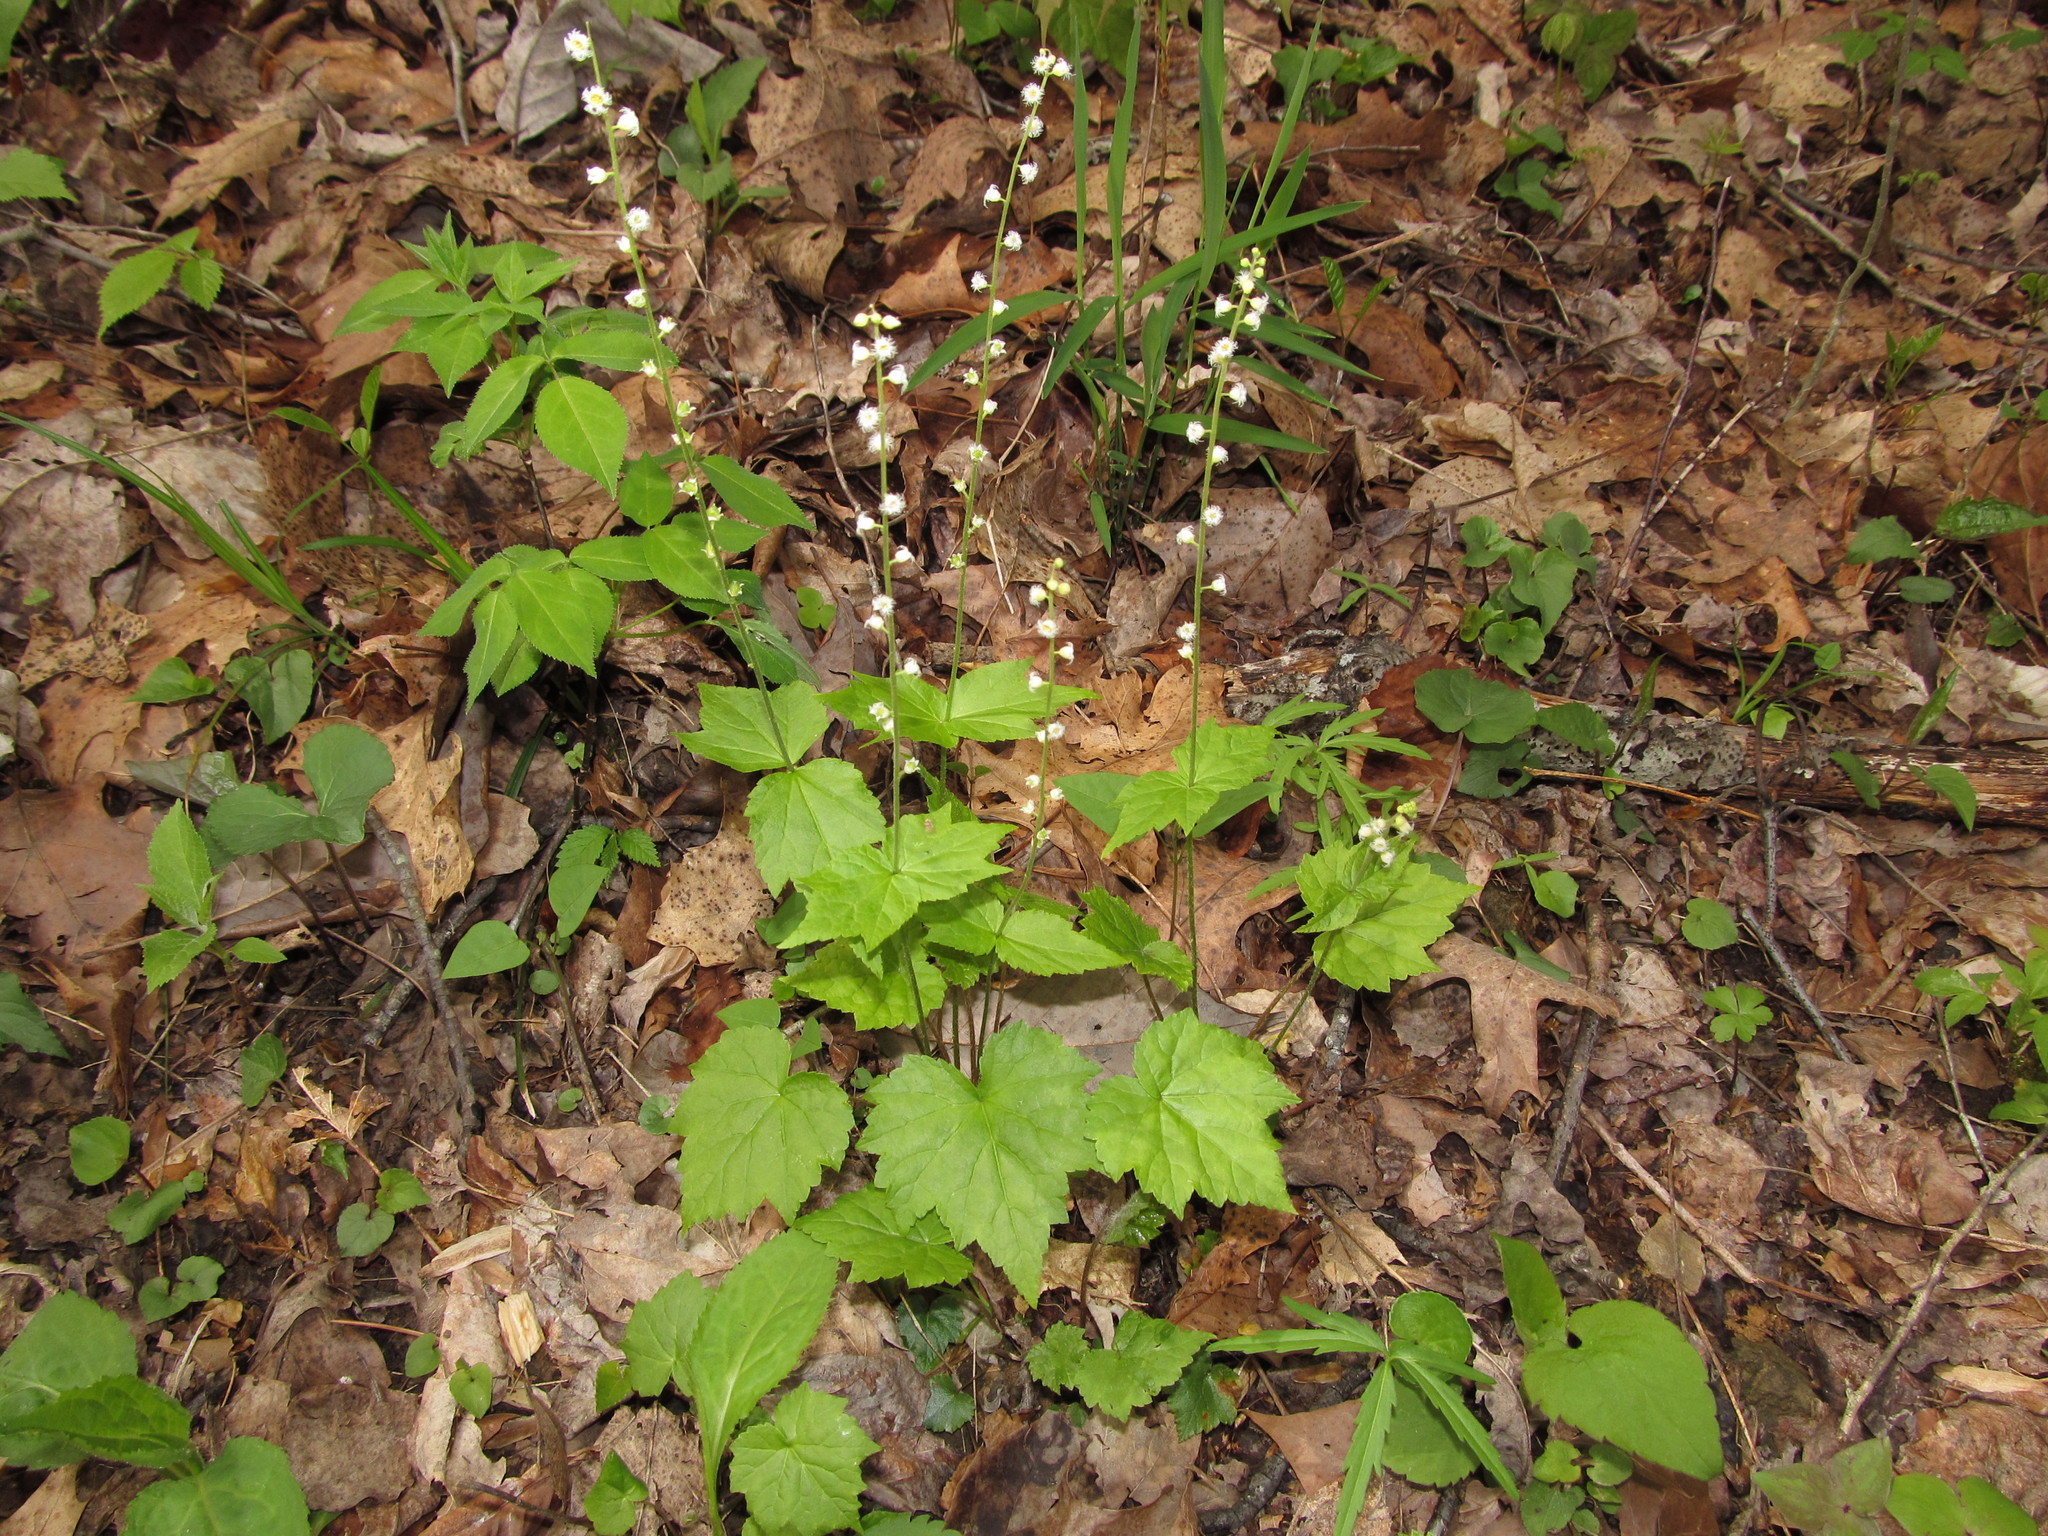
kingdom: Plantae
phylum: Tracheophyta
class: Magnoliopsida
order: Saxifragales
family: Saxifragaceae
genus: Mitella
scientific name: Mitella diphylla
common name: Coolwort
